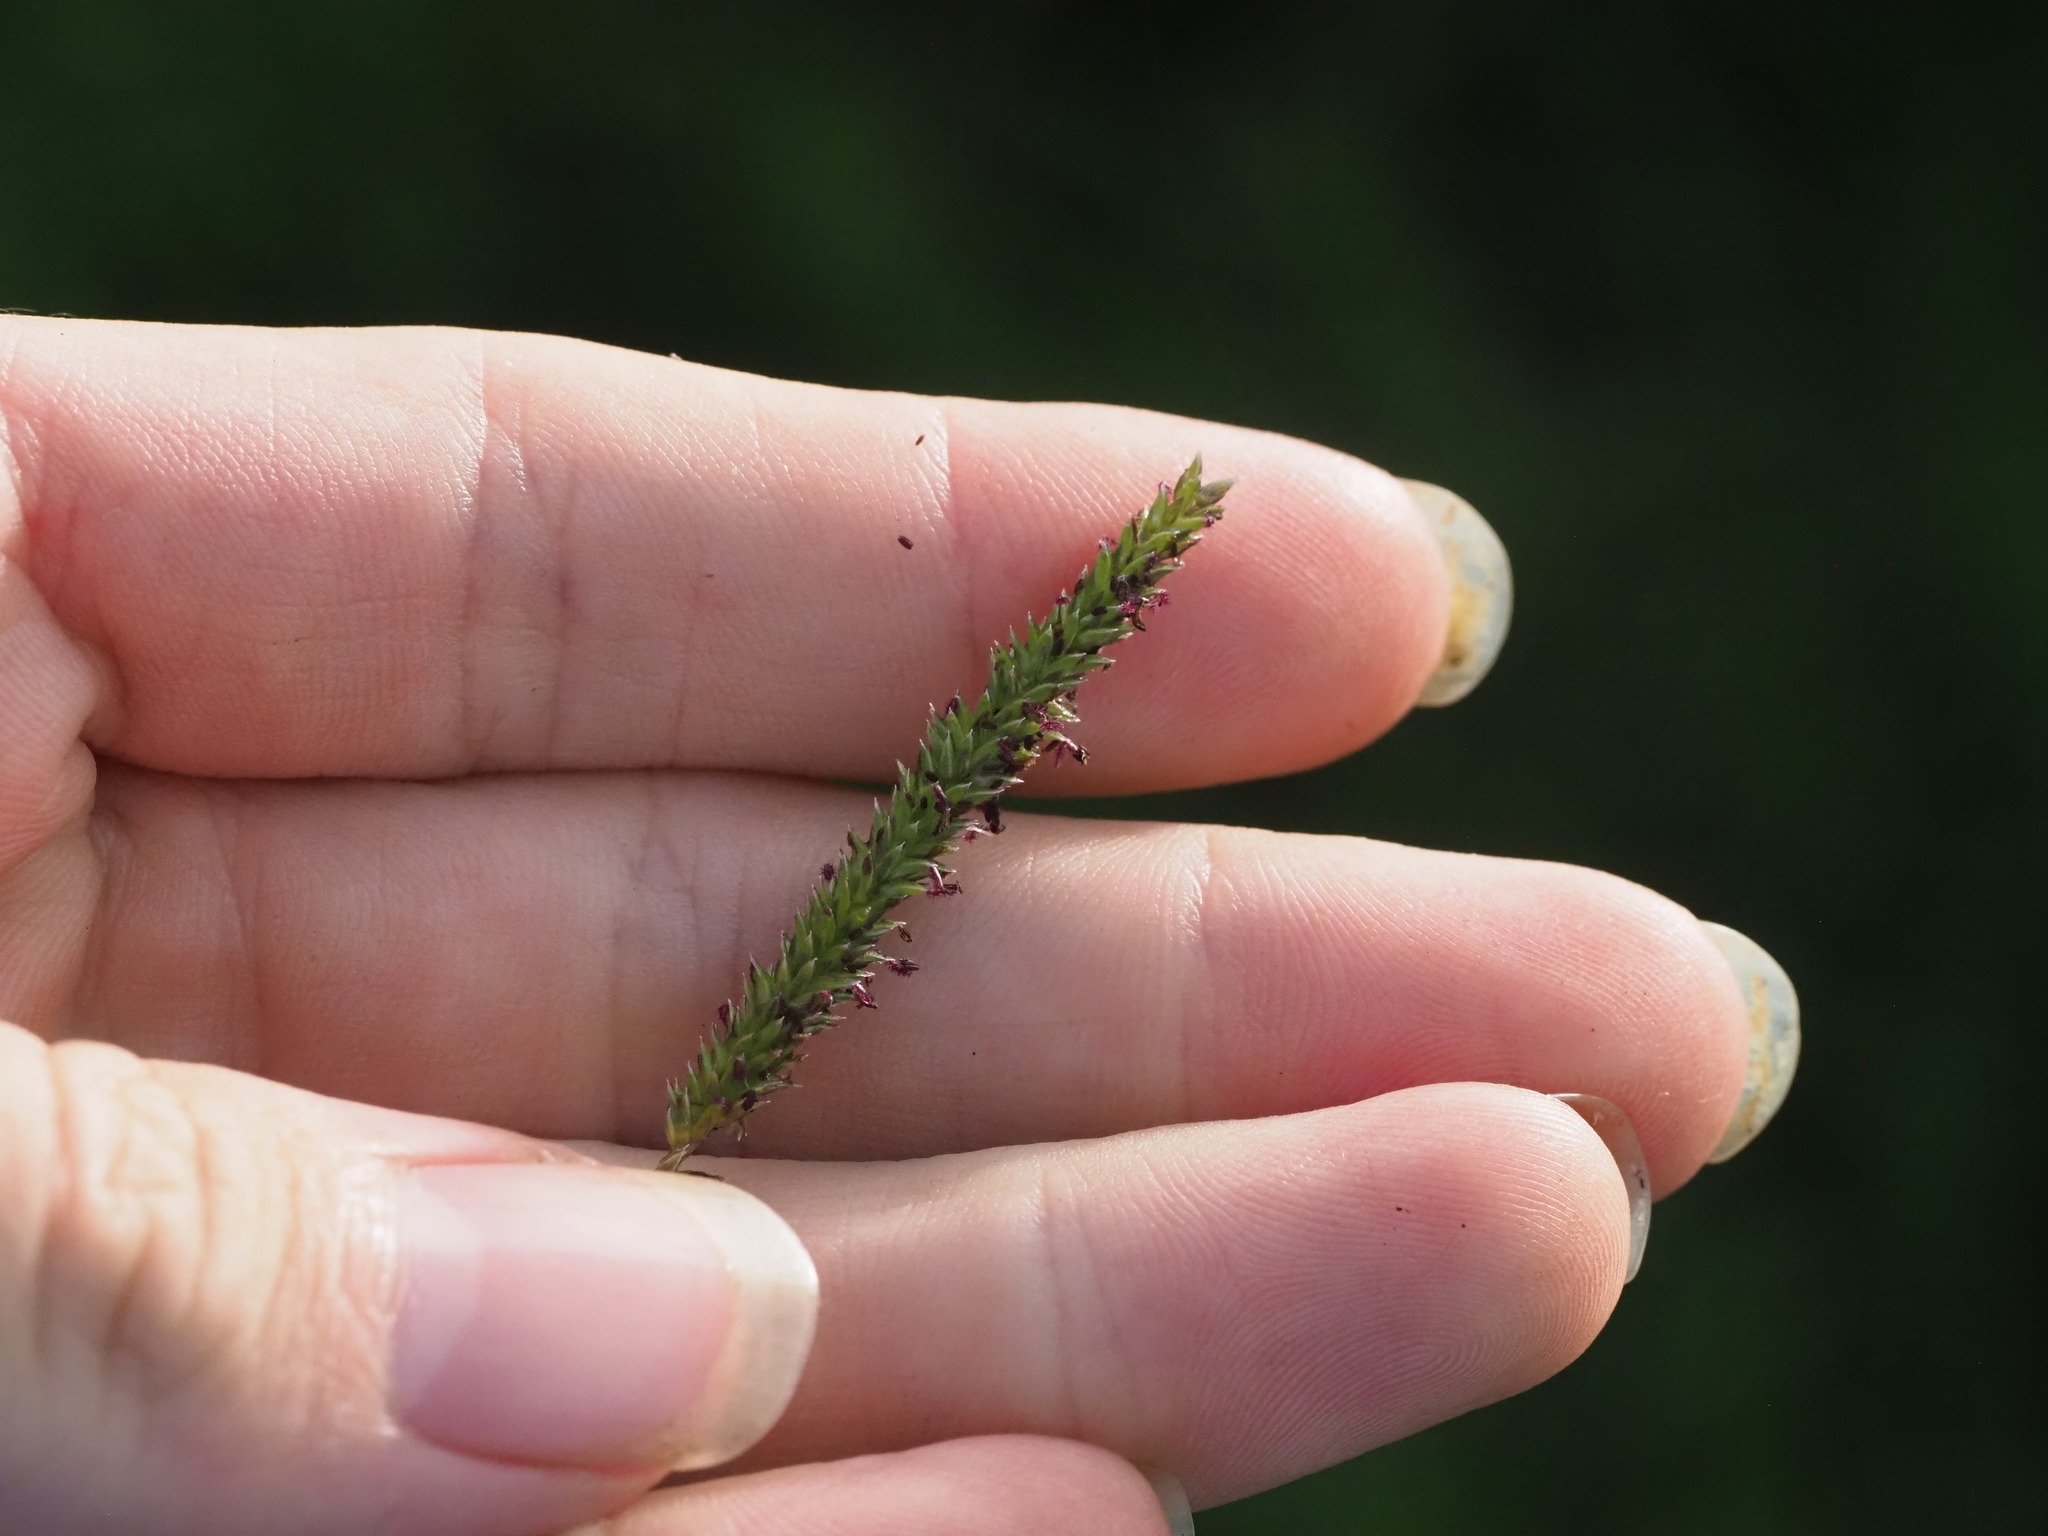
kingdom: Plantae
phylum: Tracheophyta
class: Liliopsida
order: Poales
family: Poaceae
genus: Sacciolepis
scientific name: Sacciolepis indica
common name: Glenwoodgrass
